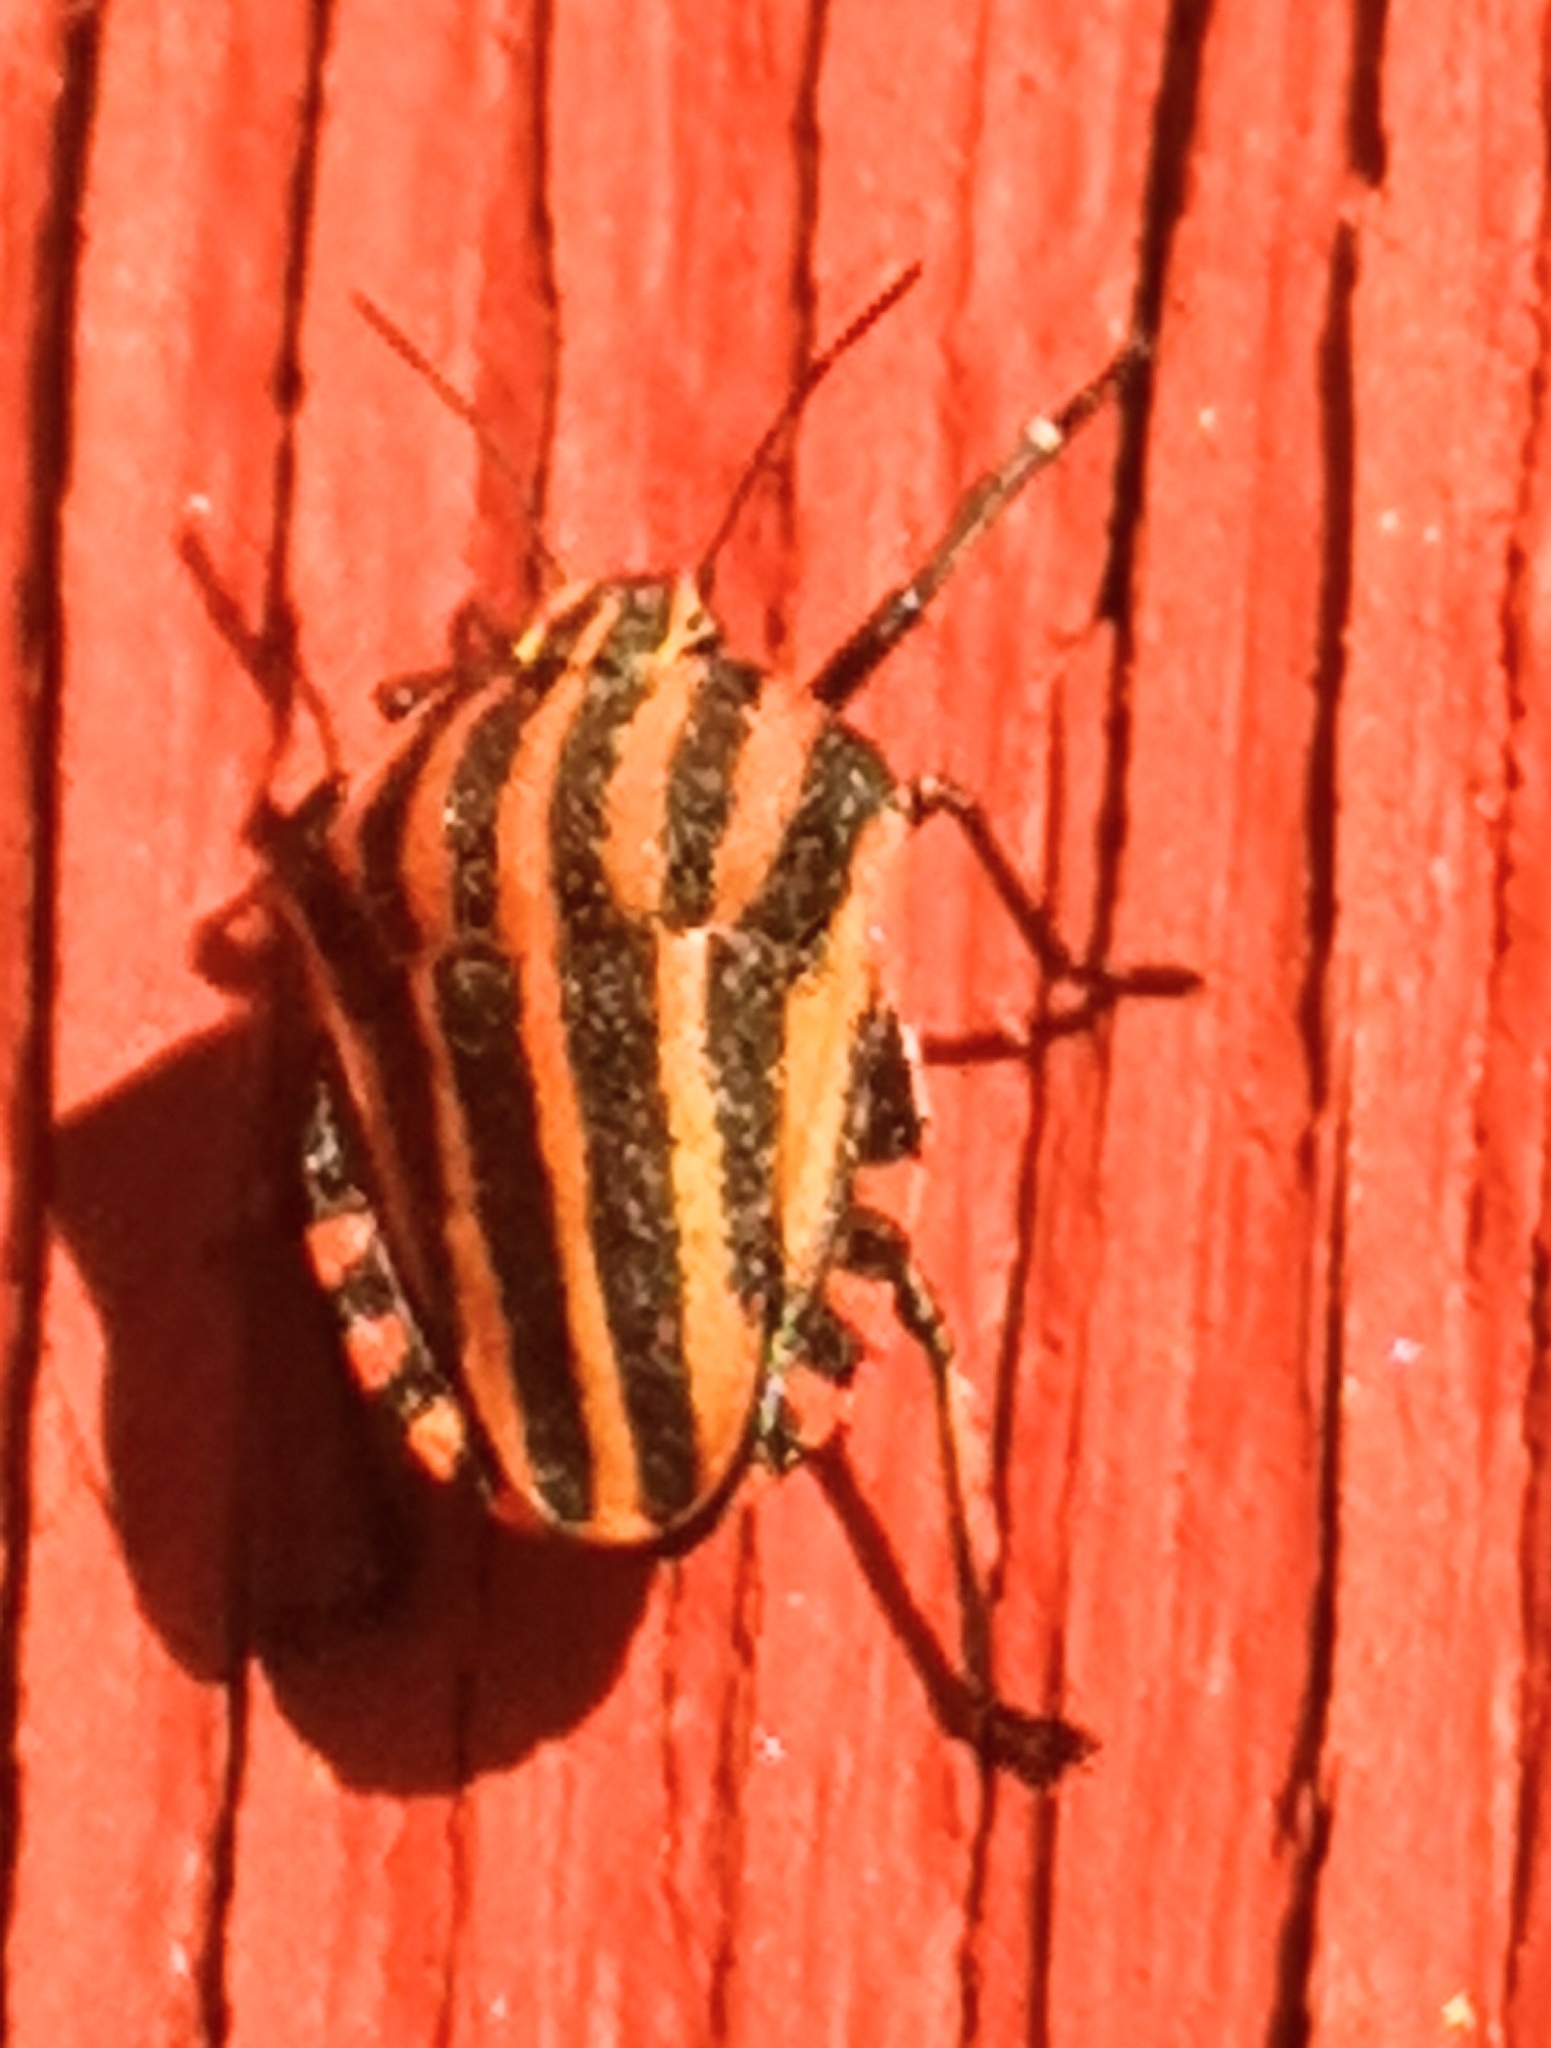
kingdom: Animalia
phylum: Arthropoda
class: Insecta
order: Hemiptera
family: Pentatomidae
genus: Graphosoma
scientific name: Graphosoma italicum
